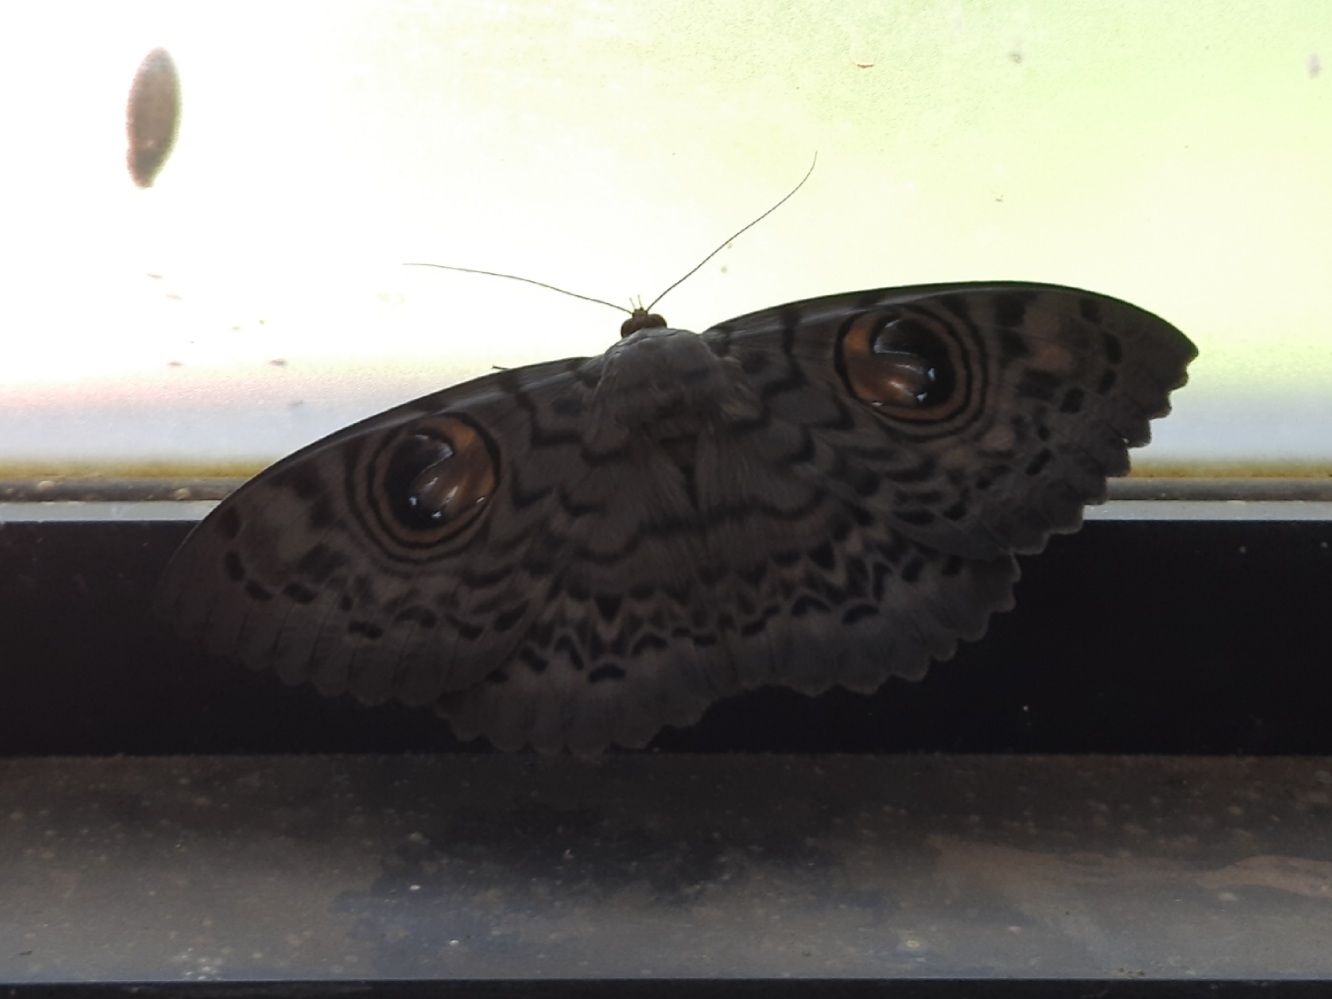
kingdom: Animalia
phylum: Arthropoda
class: Insecta
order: Lepidoptera
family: Erebidae
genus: Erebus
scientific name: Erebus macrops
